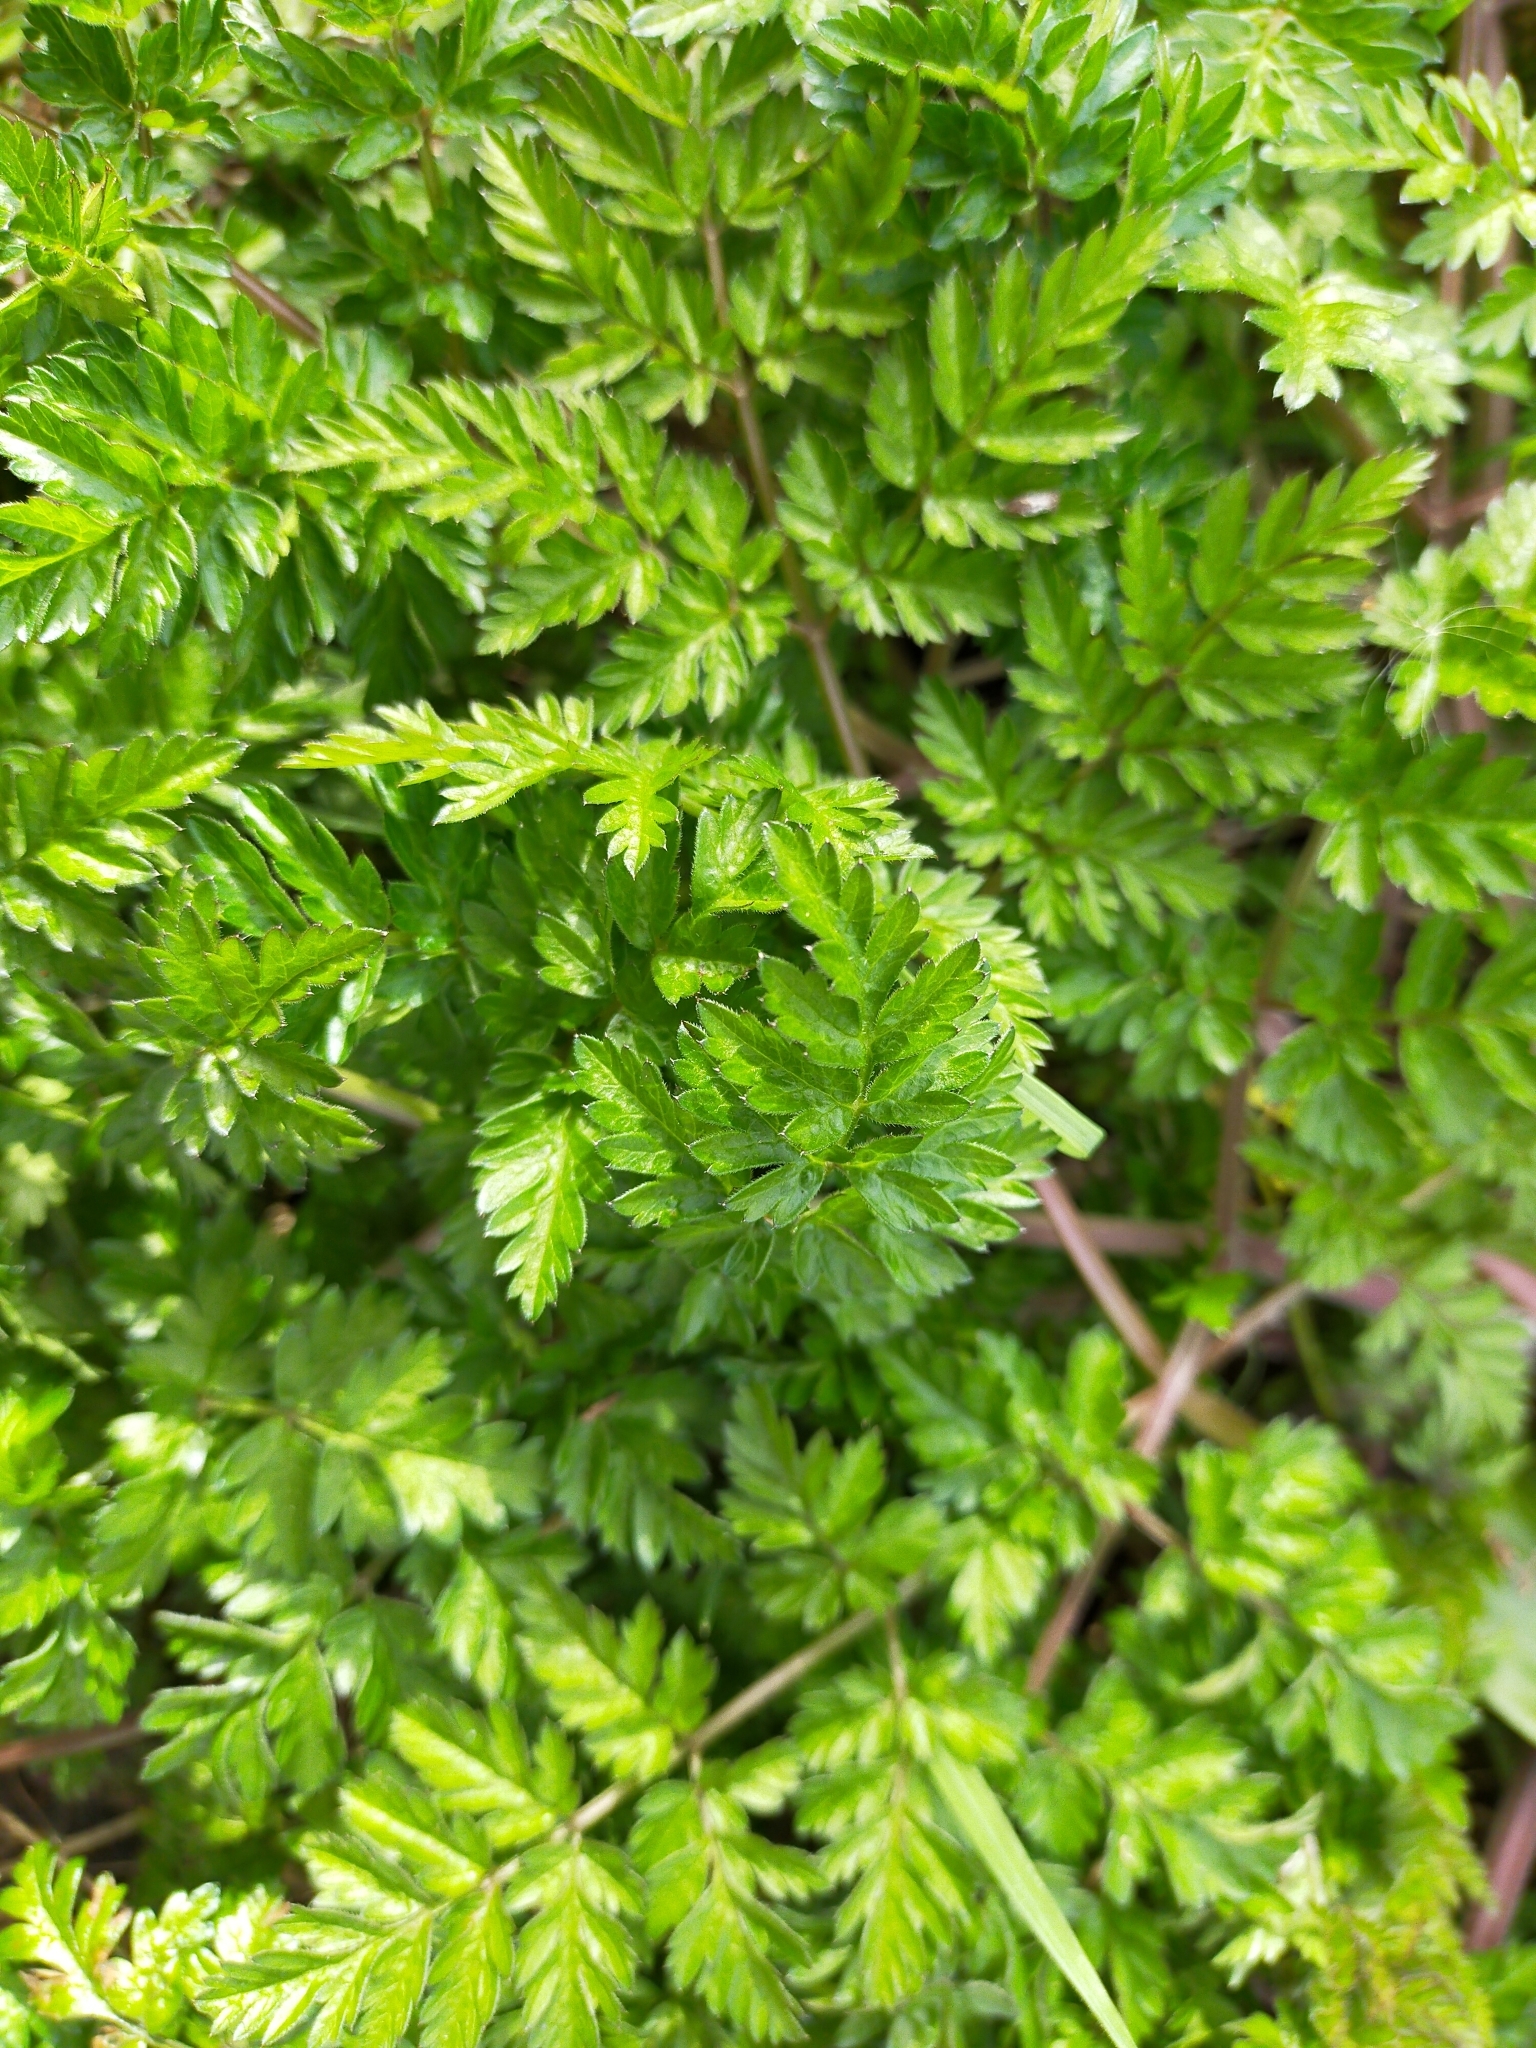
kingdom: Plantae
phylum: Tracheophyta
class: Magnoliopsida
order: Apiales
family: Apiaceae
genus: Anthriscus
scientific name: Anthriscus sylvestris
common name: Cow parsley
